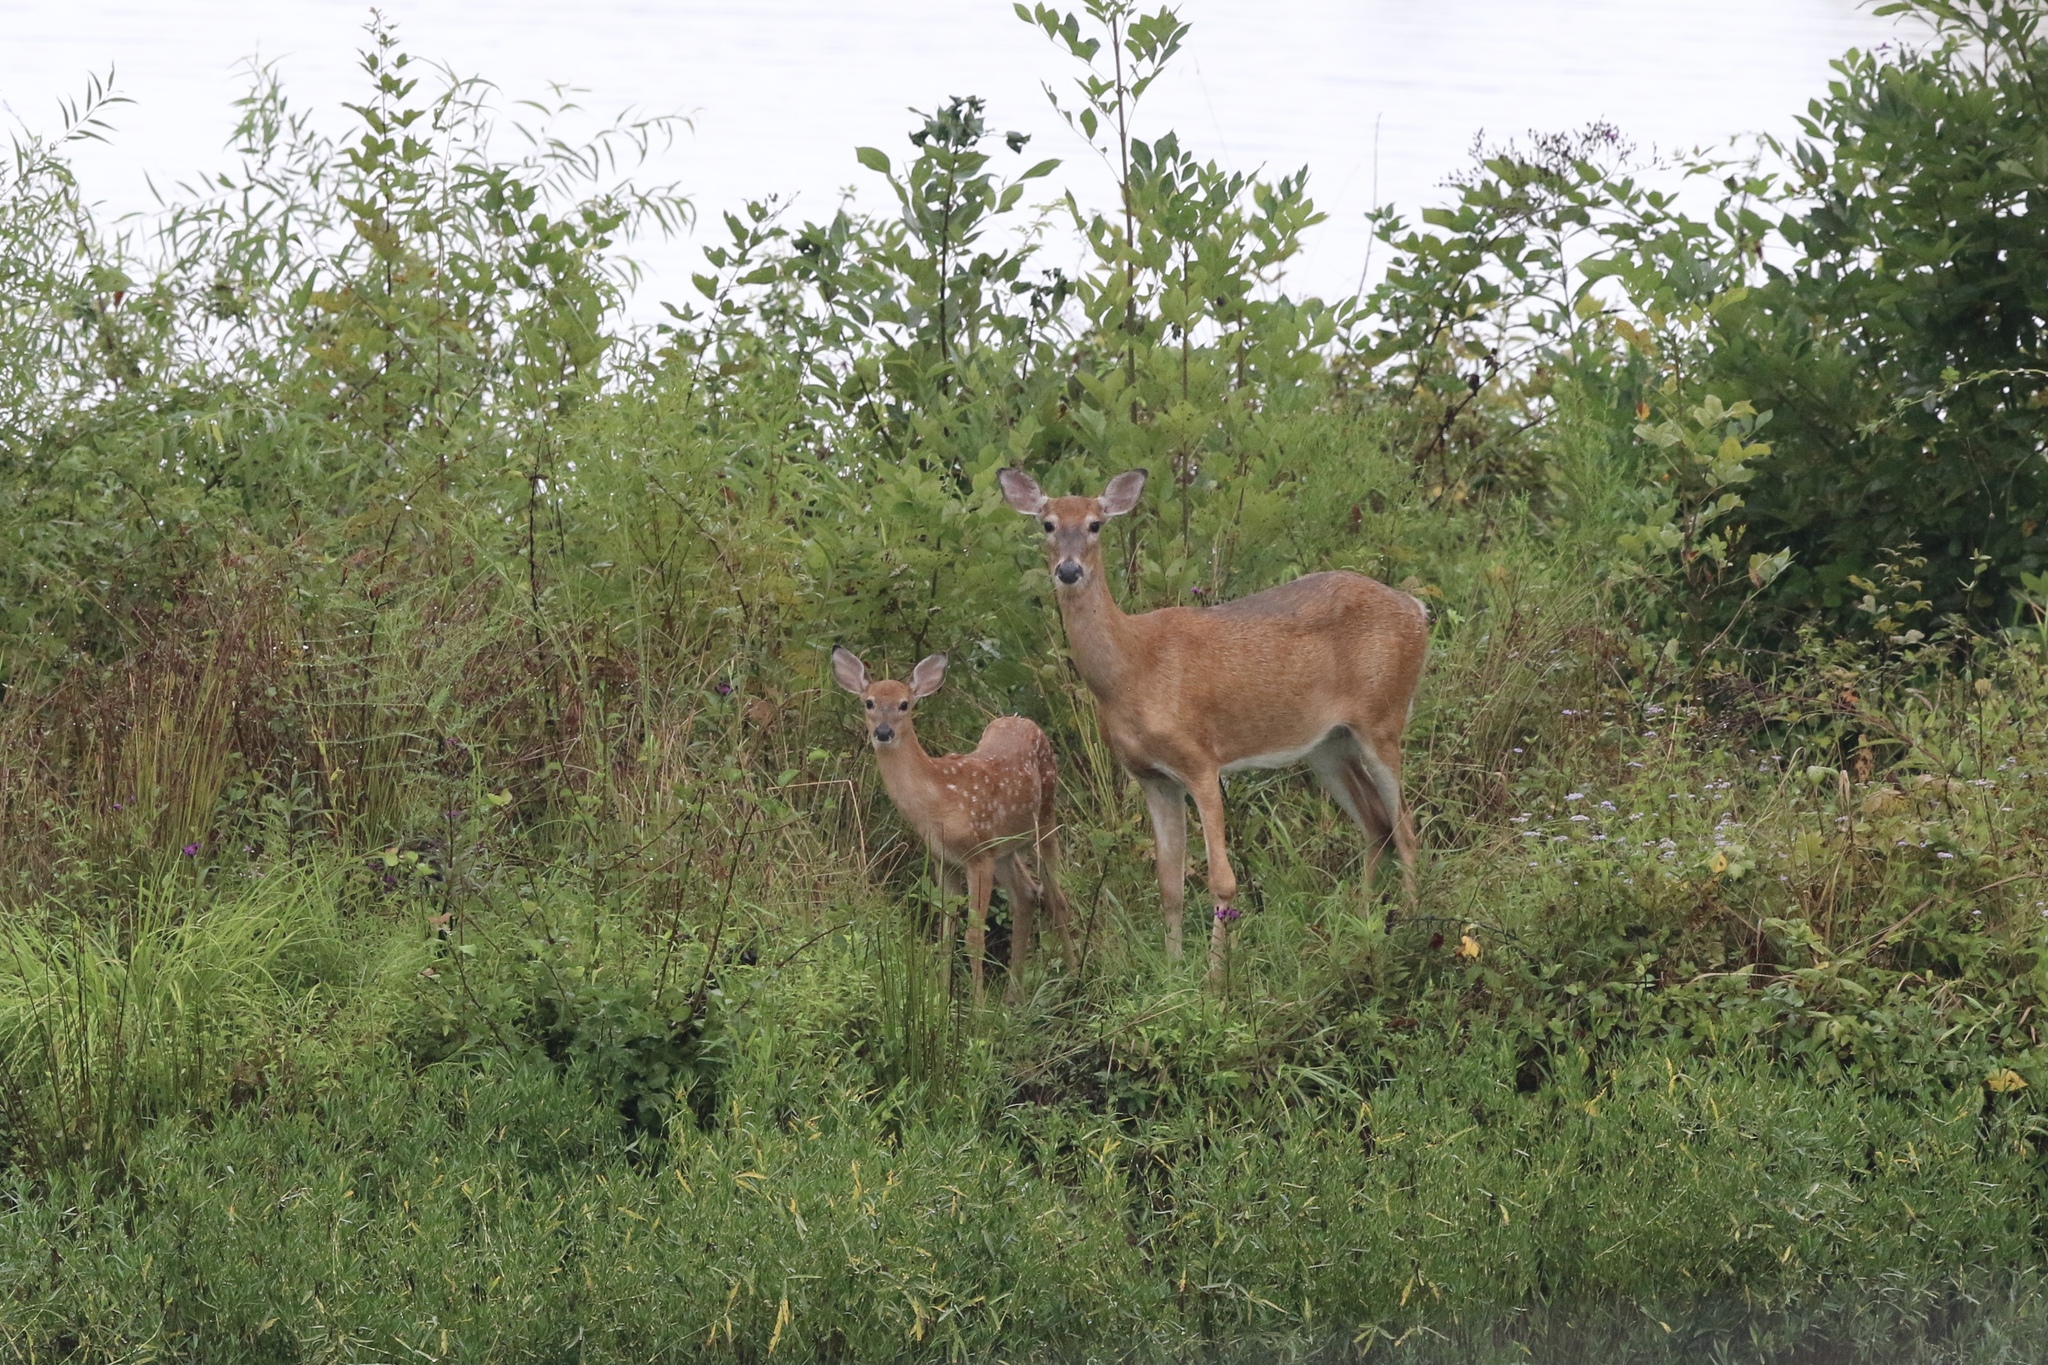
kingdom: Animalia
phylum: Chordata
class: Mammalia
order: Artiodactyla
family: Cervidae
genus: Odocoileus
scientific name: Odocoileus virginianus
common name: White-tailed deer
